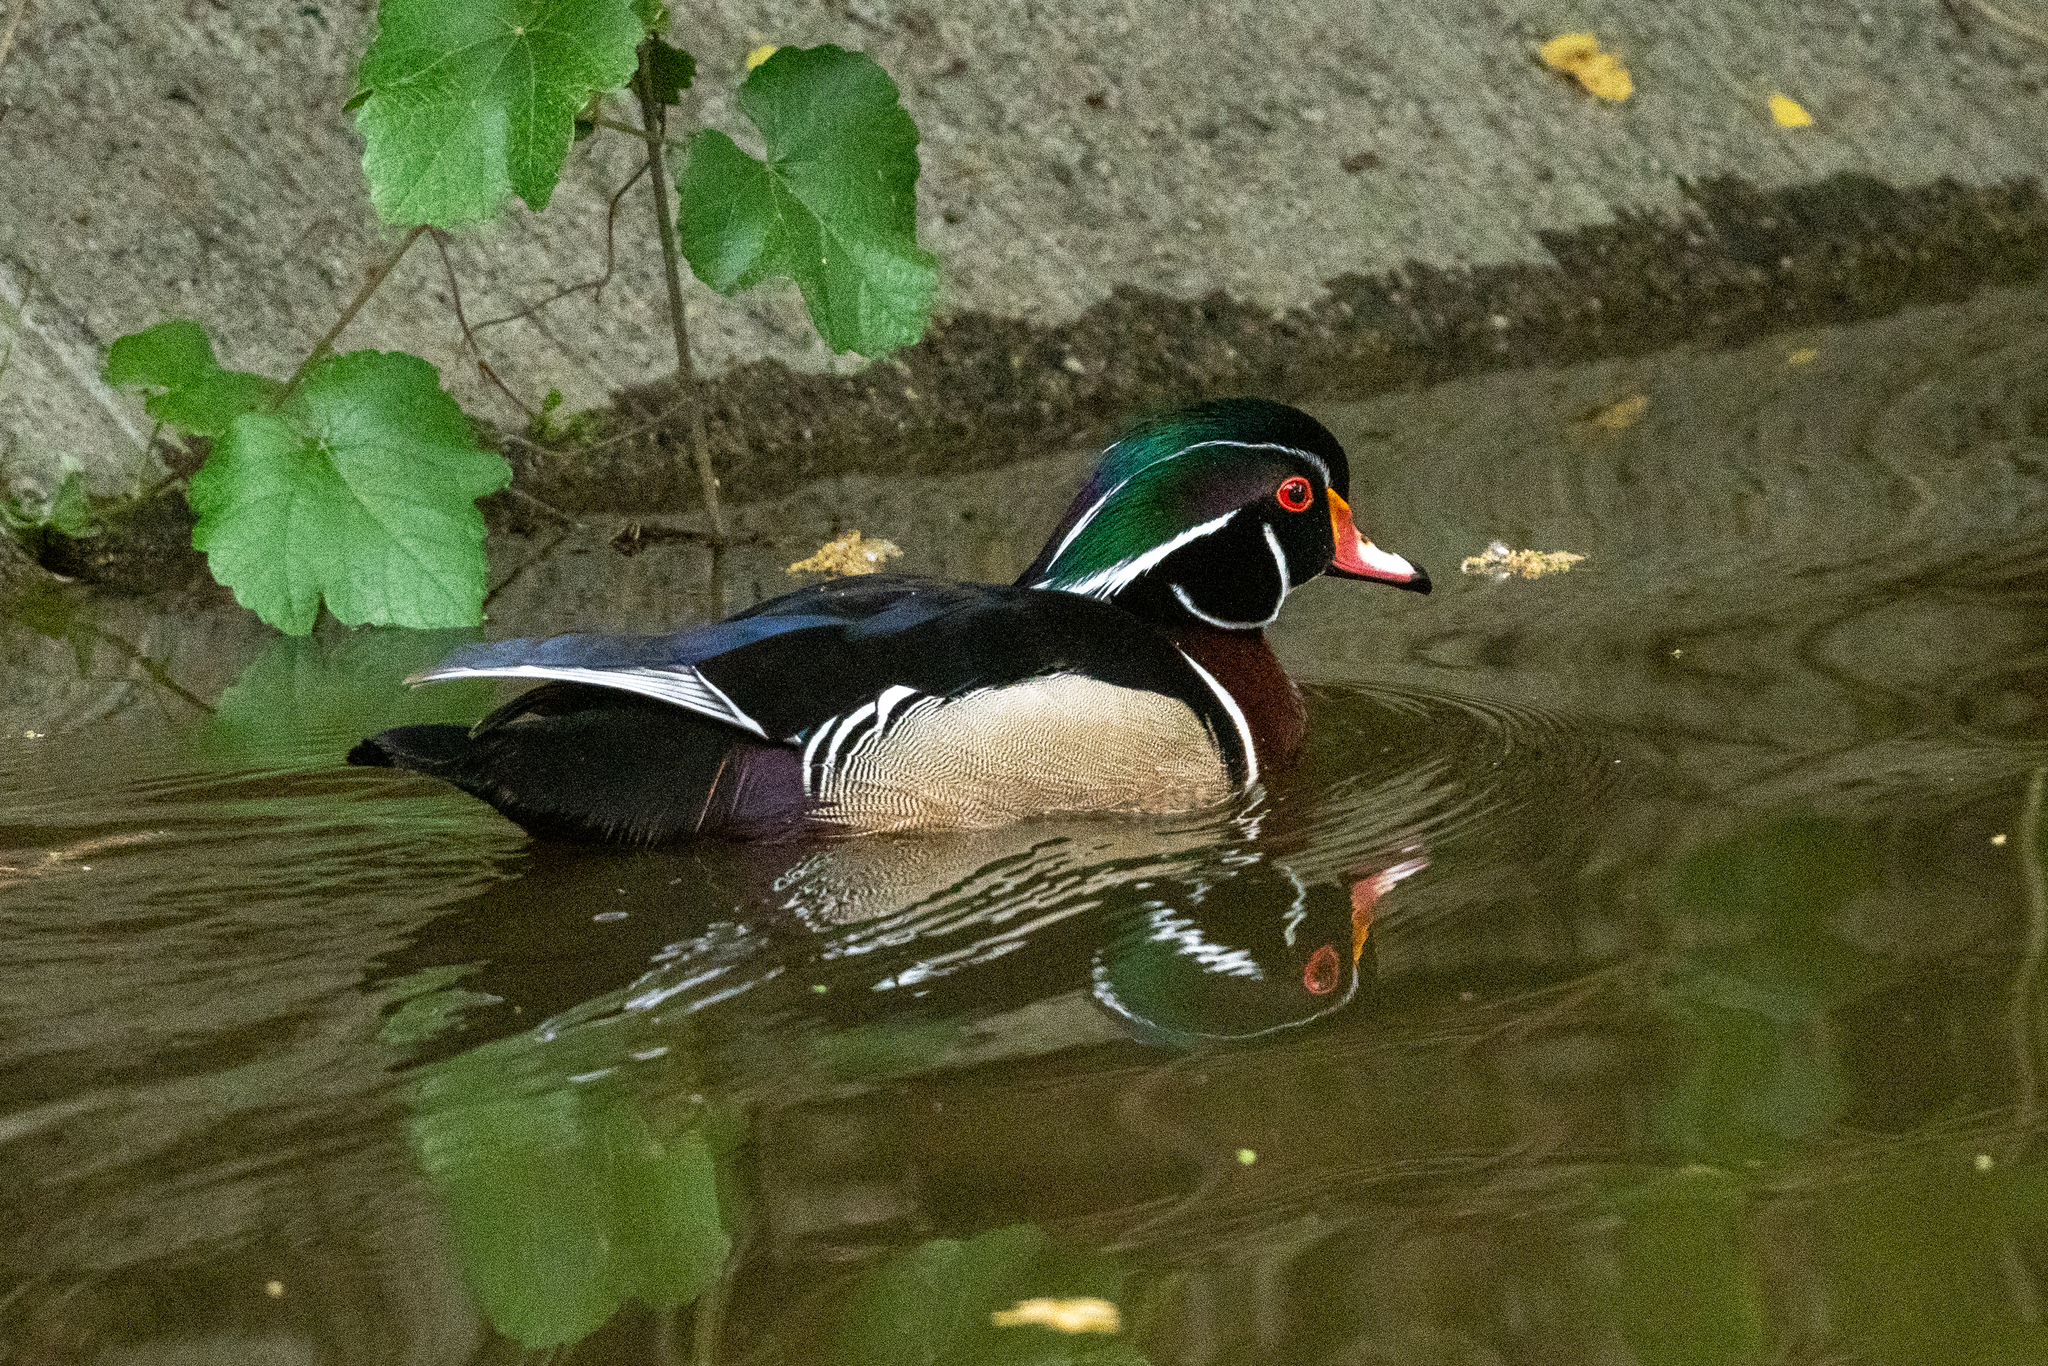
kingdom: Animalia
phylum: Chordata
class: Aves
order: Anseriformes
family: Anatidae
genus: Aix
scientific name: Aix sponsa
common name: Wood duck
